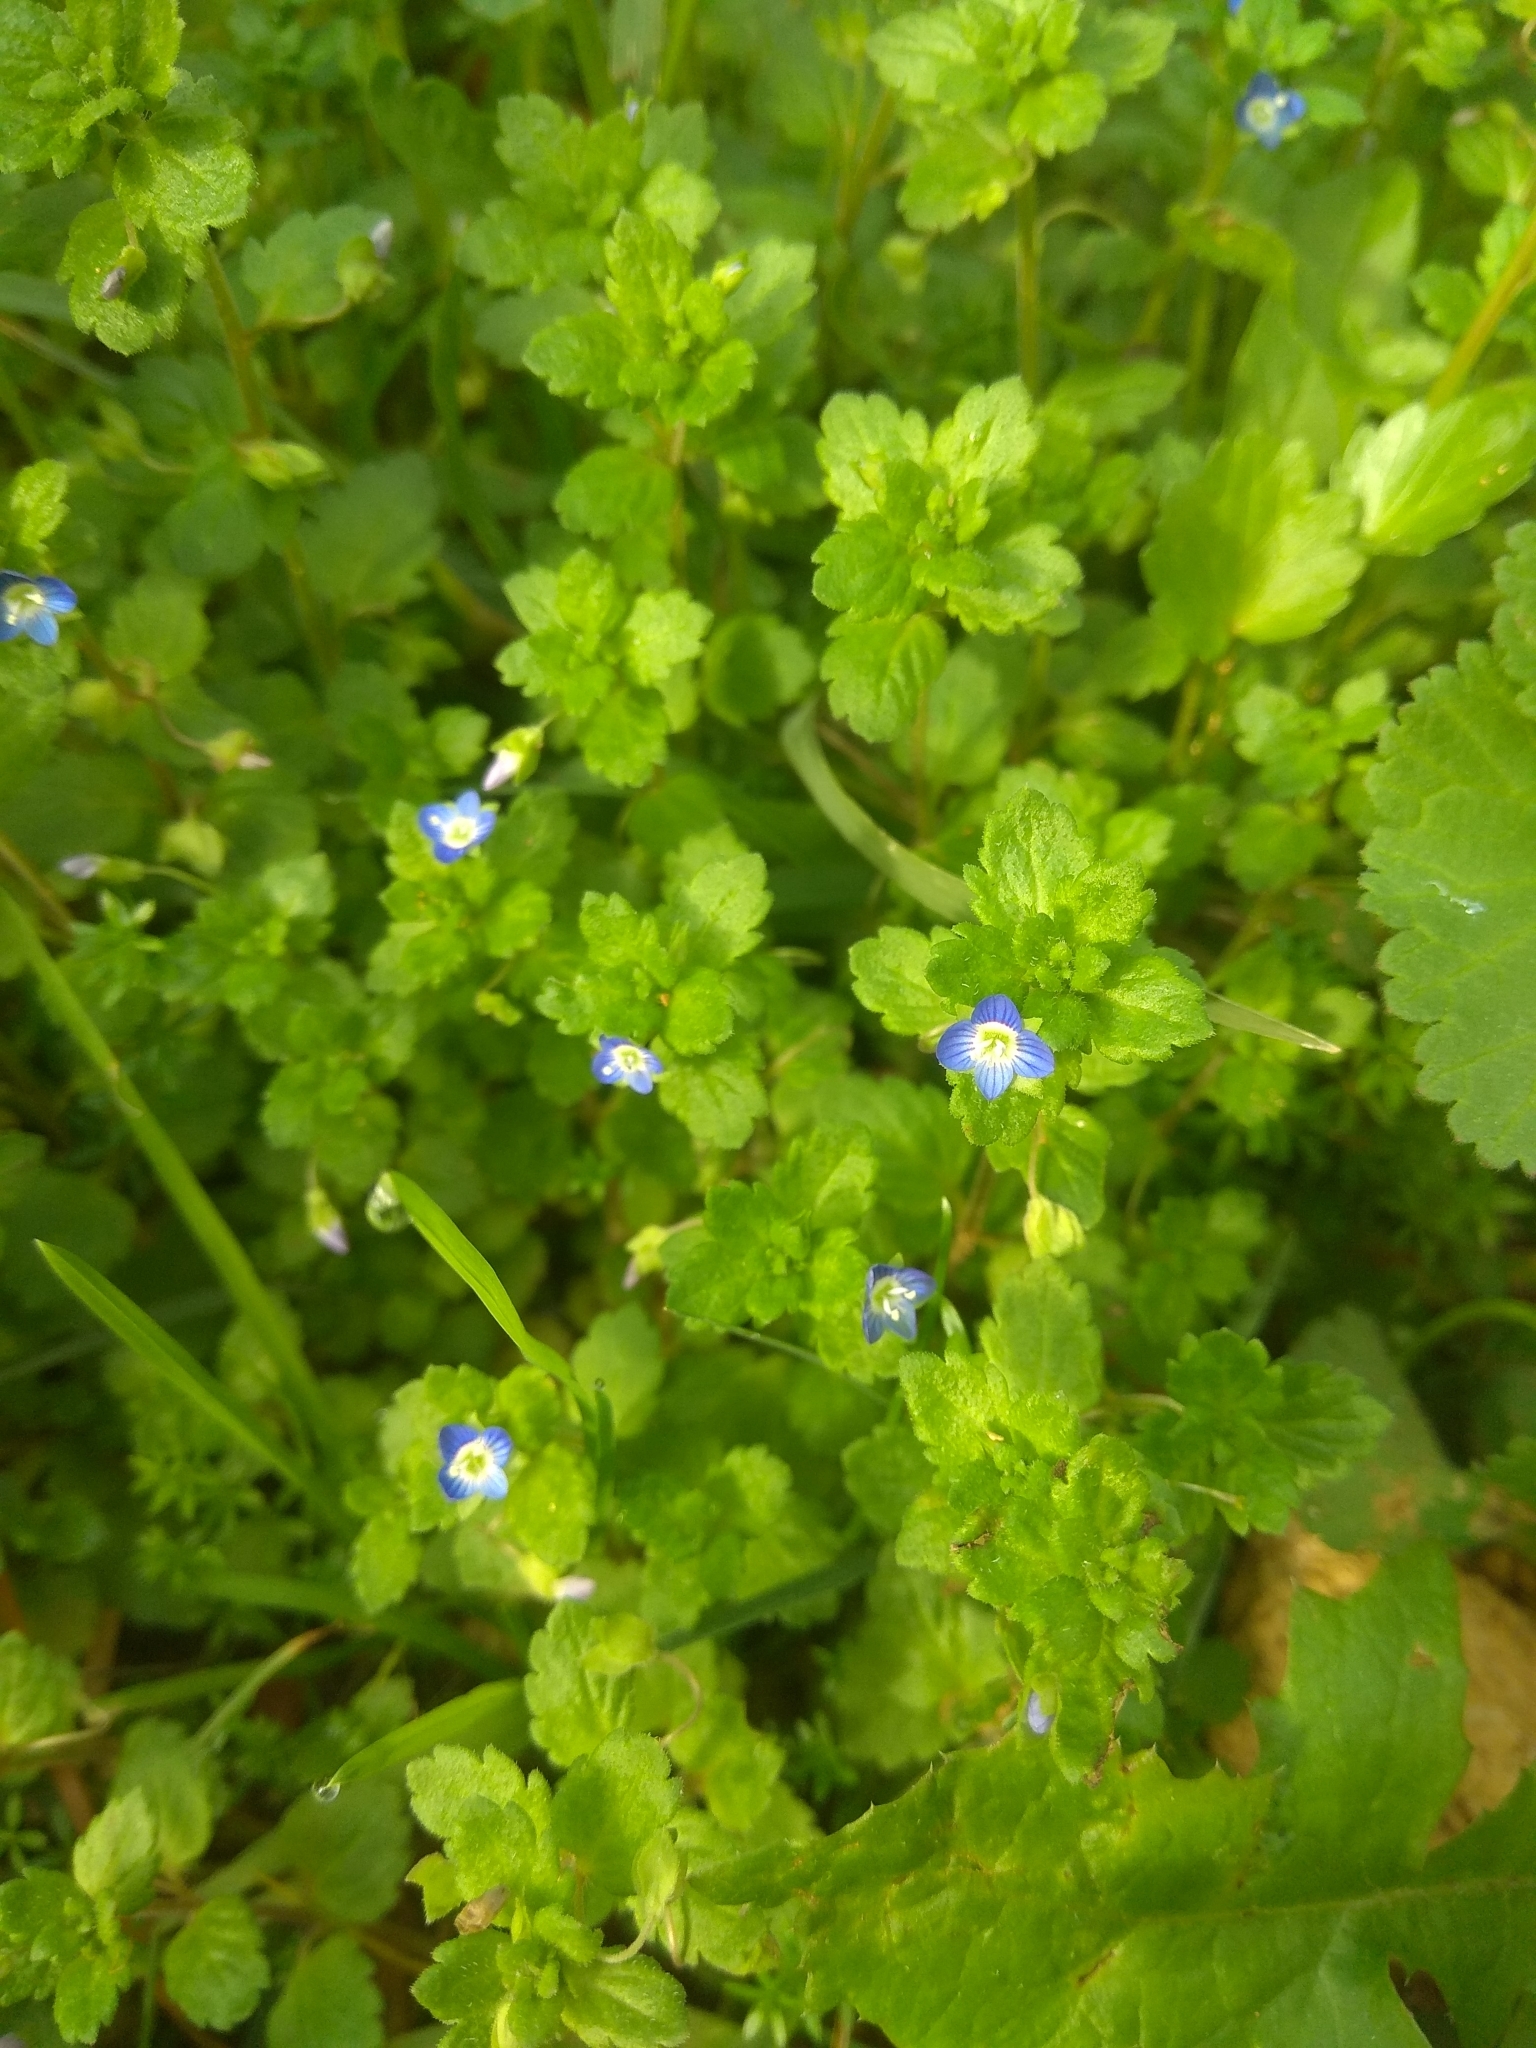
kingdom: Plantae
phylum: Tracheophyta
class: Magnoliopsida
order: Lamiales
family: Plantaginaceae
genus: Veronica
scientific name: Veronica polita
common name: Grey field-speedwell
